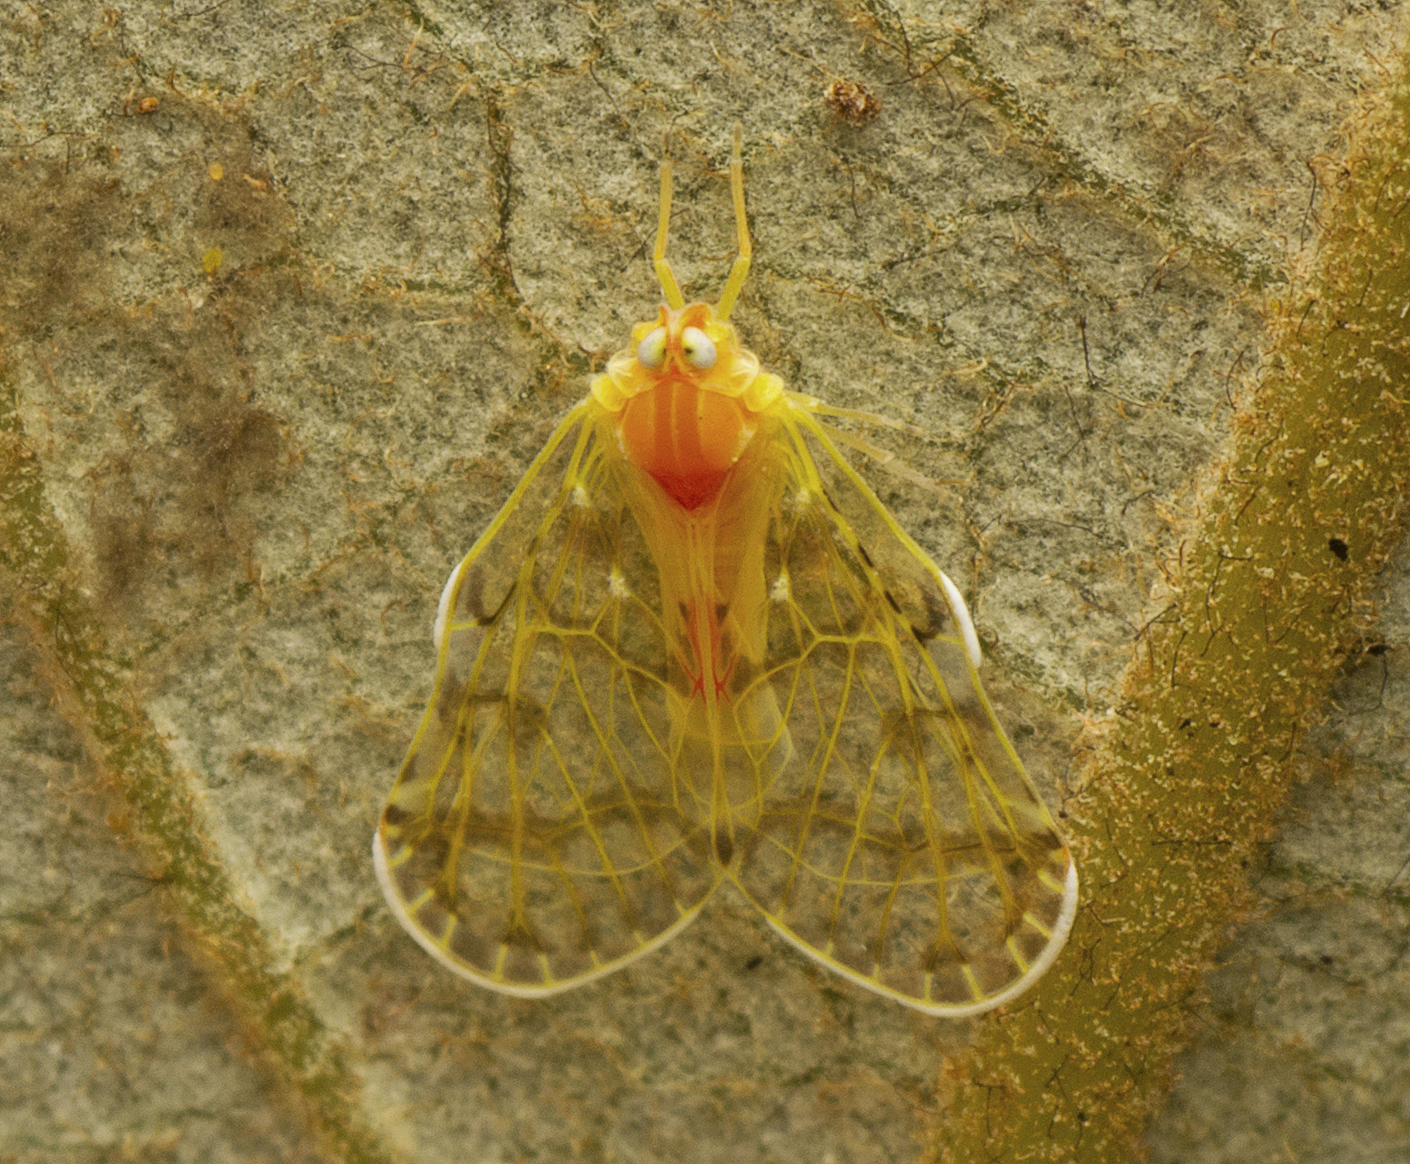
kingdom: Animalia
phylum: Arthropoda
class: Insecta
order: Hemiptera
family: Derbidae
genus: Saccharodite
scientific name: Saccharodite chrysonoe
